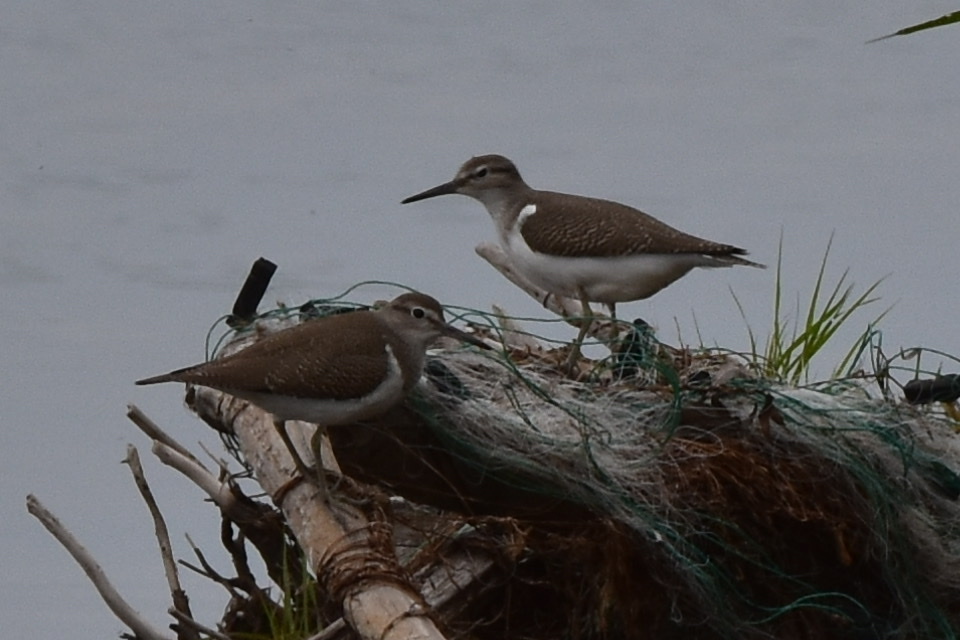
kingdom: Animalia
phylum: Chordata
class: Aves
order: Charadriiformes
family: Scolopacidae
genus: Actitis
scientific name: Actitis hypoleucos
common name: Common sandpiper
